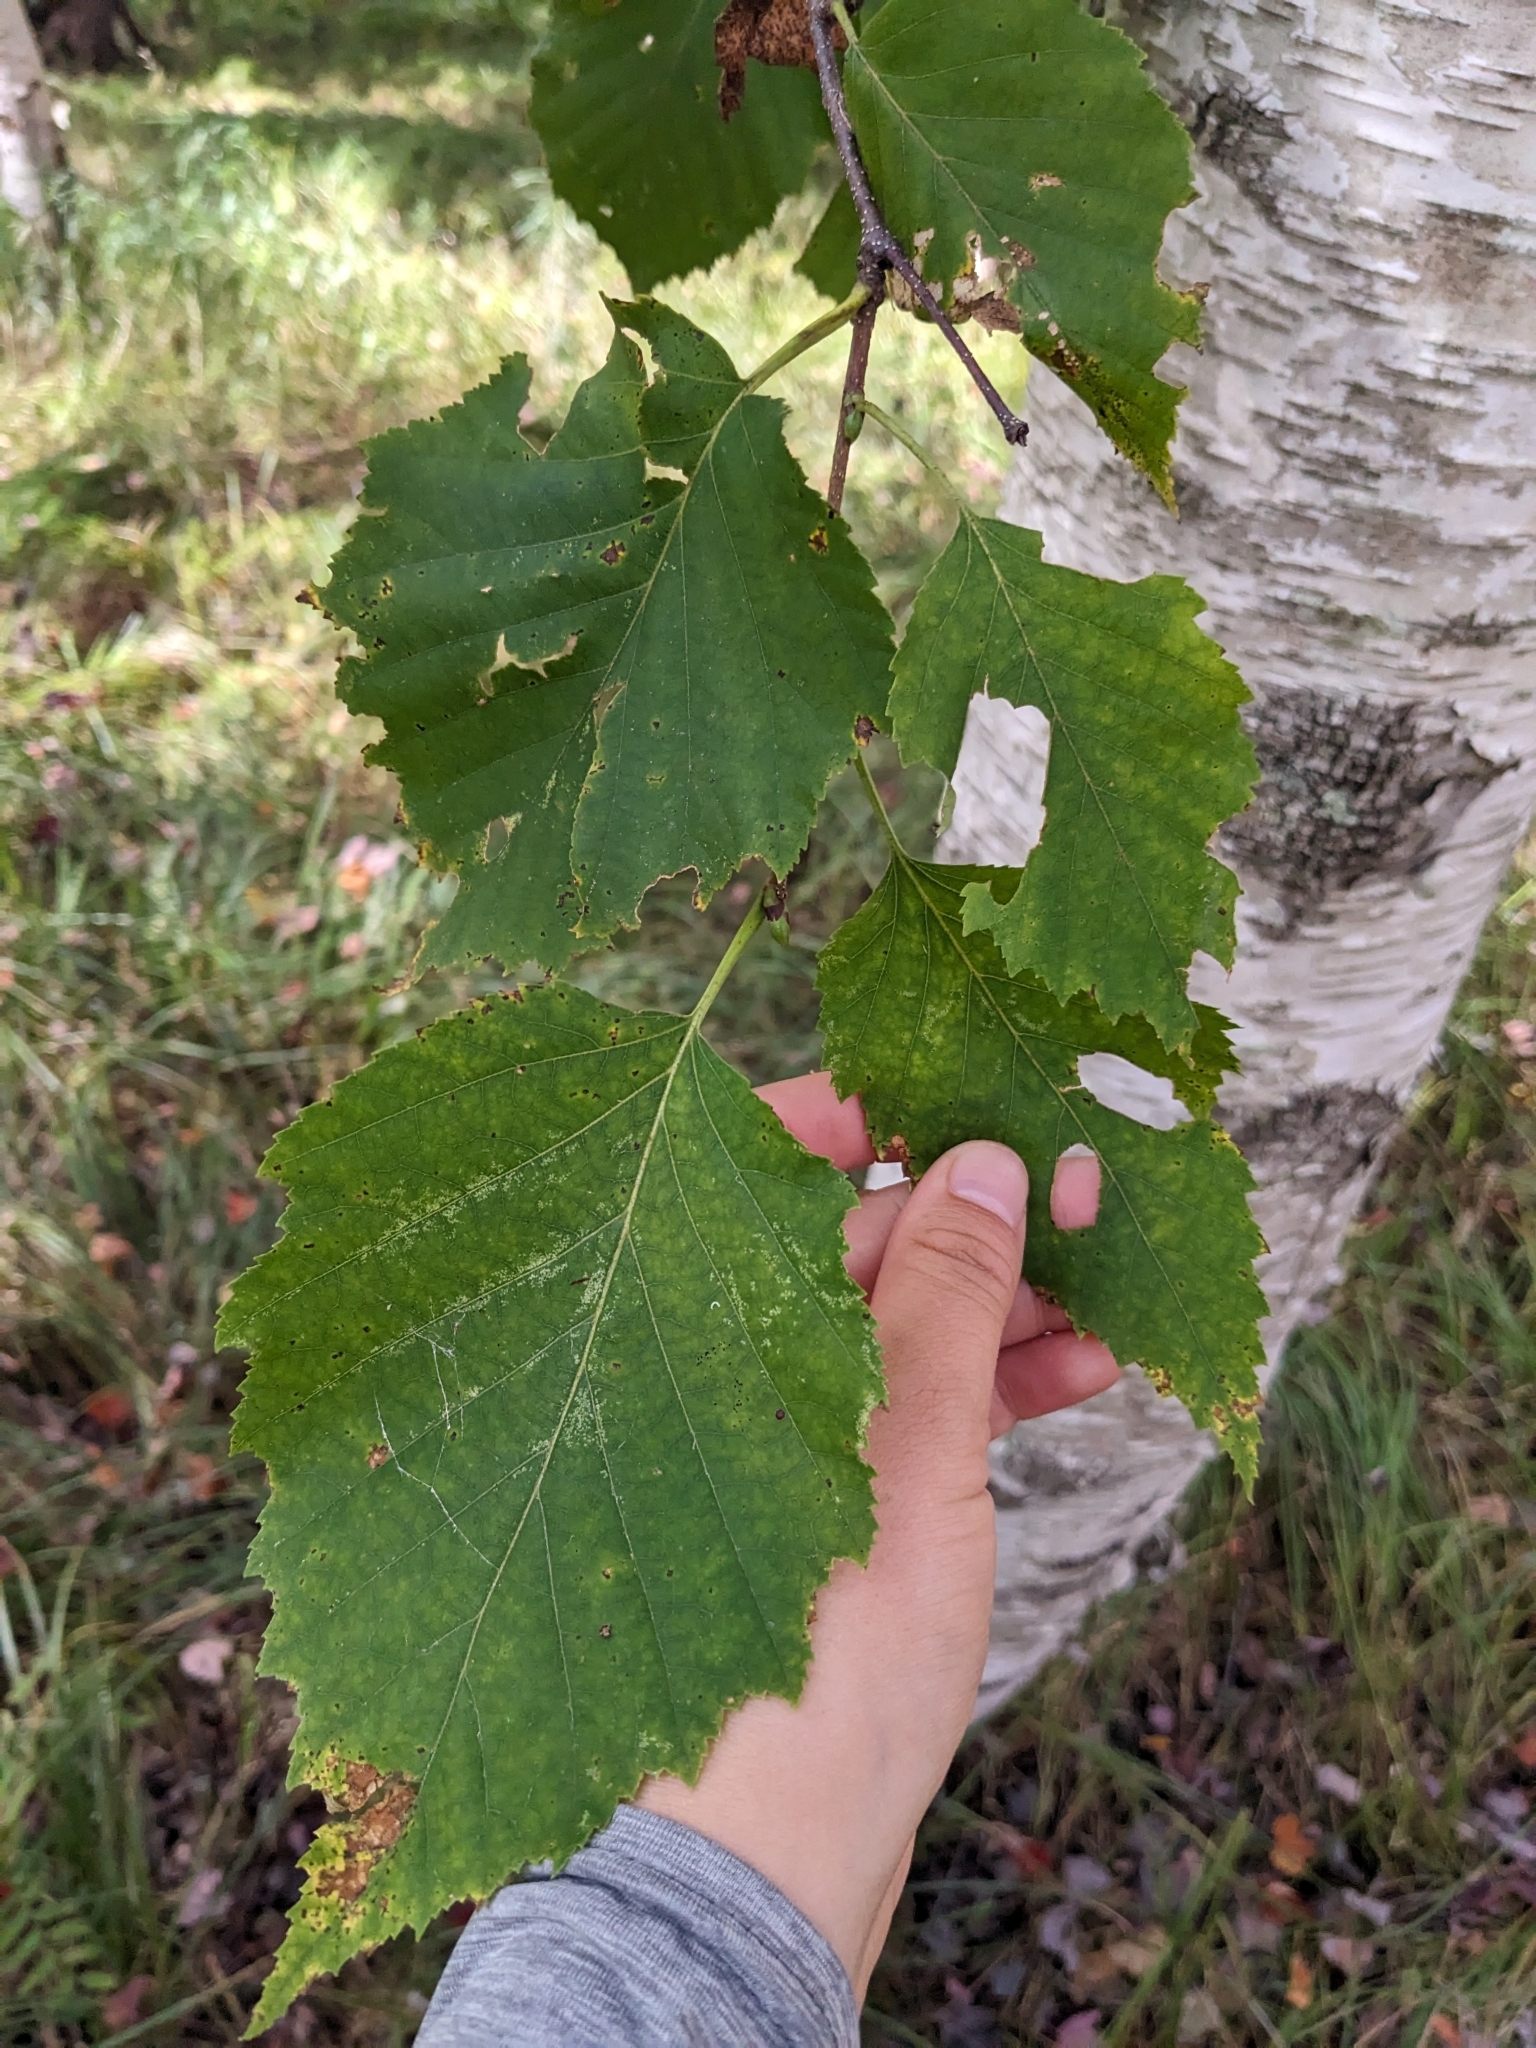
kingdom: Plantae
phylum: Tracheophyta
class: Magnoliopsida
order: Fagales
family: Betulaceae
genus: Betula
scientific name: Betula papyrifera
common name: Paper birch
